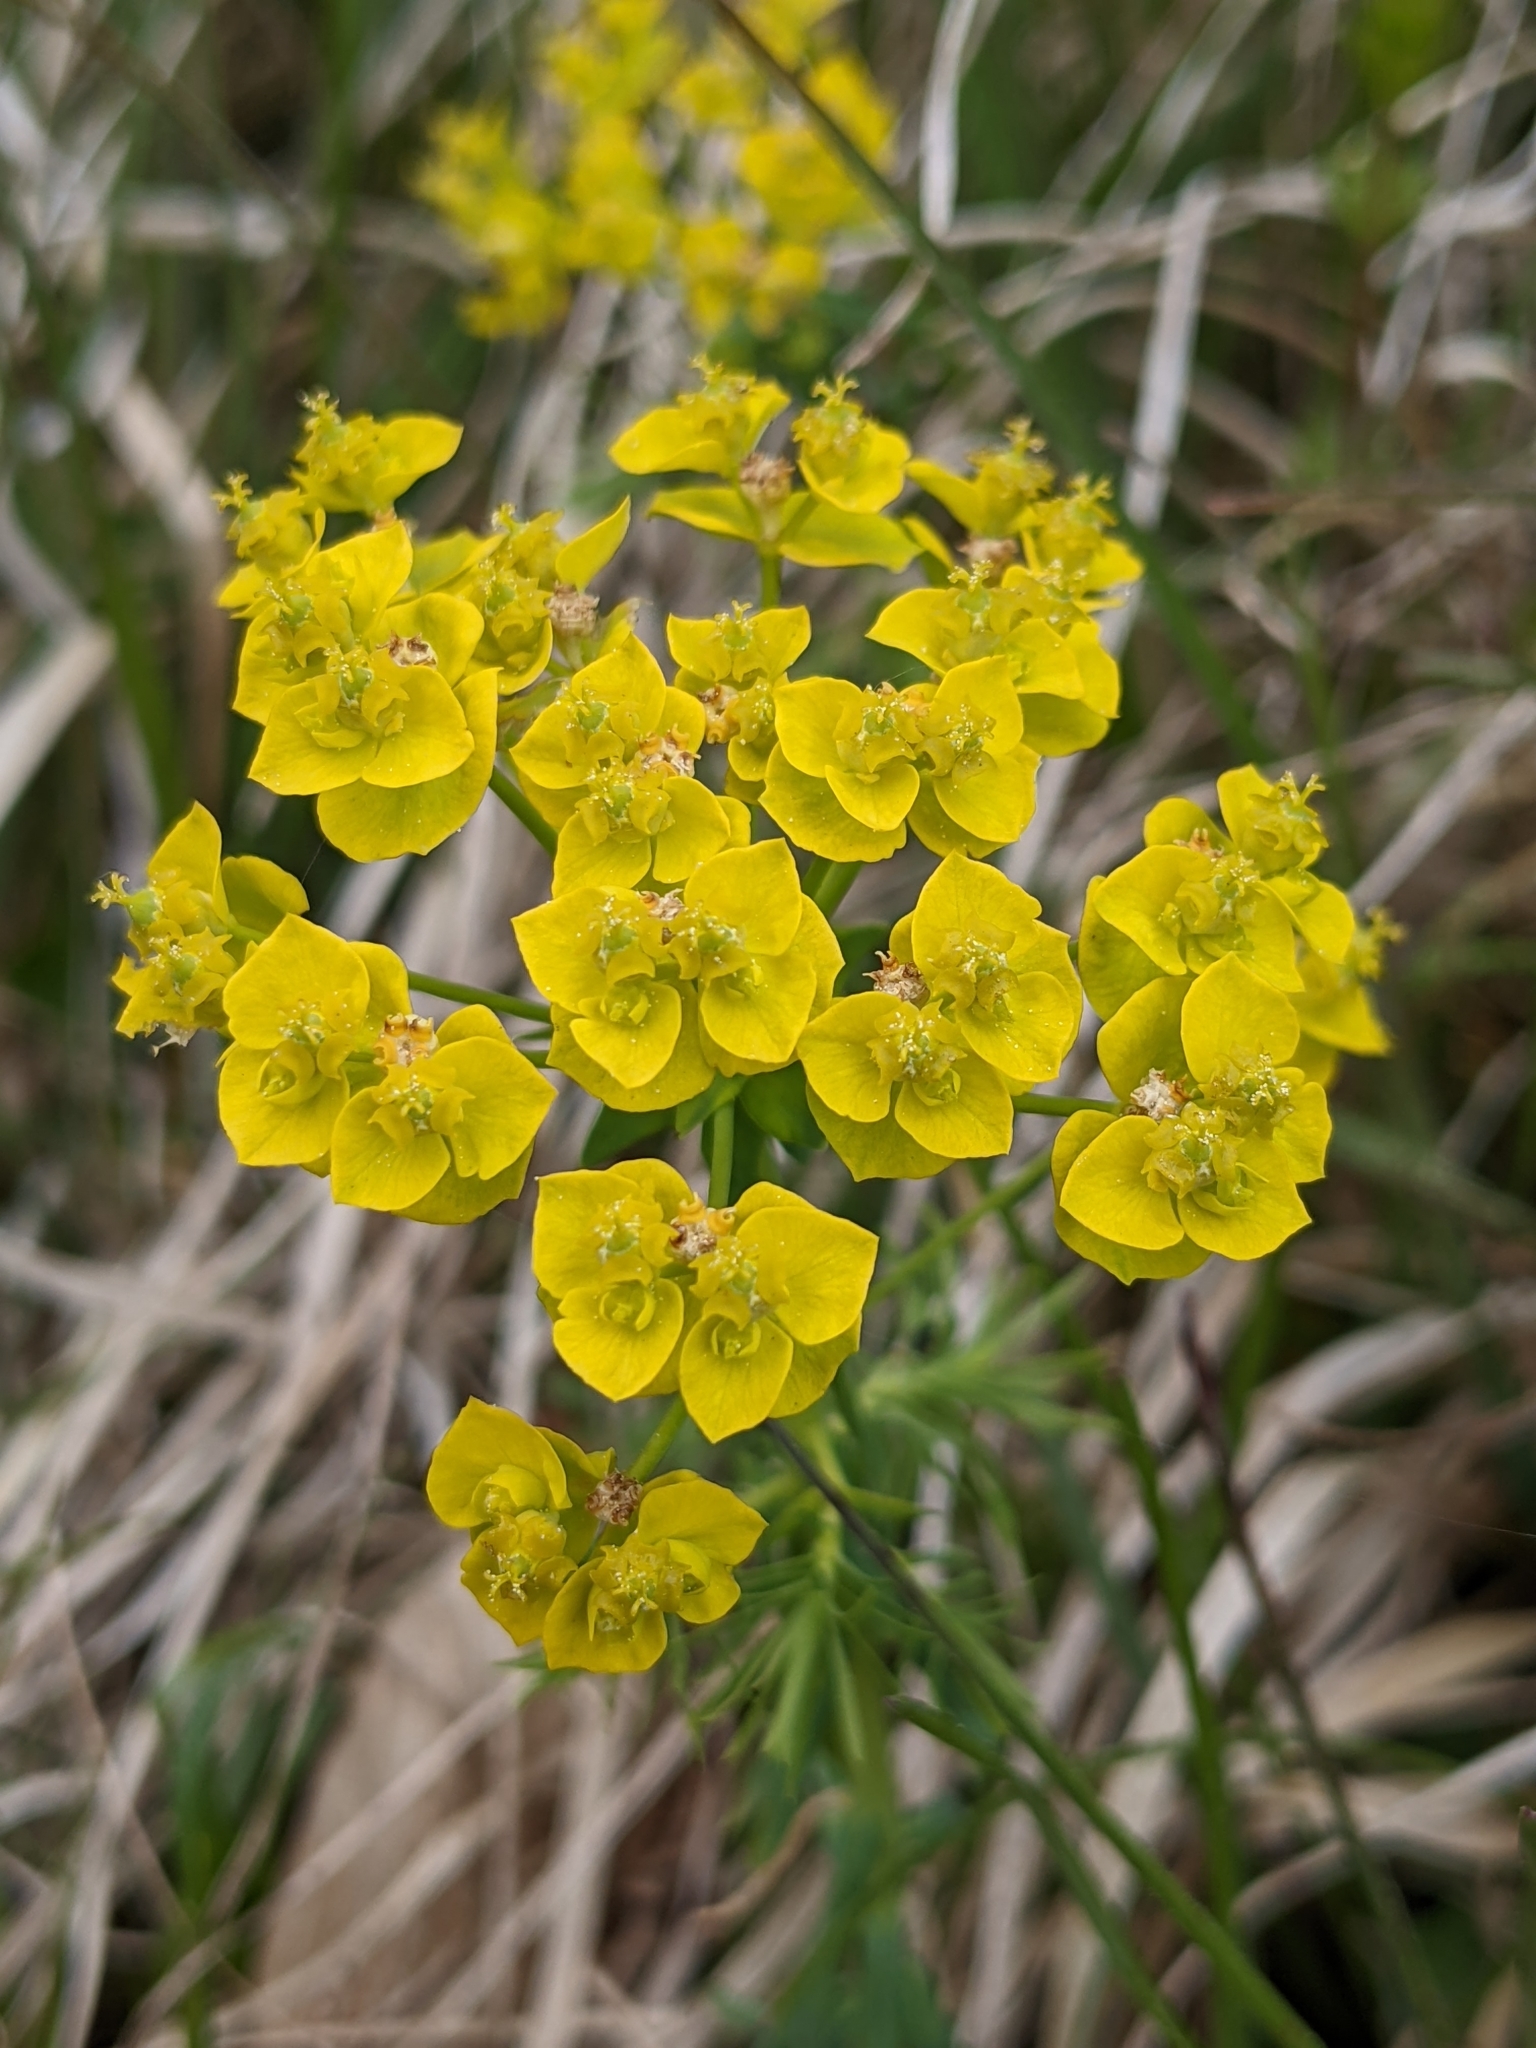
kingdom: Plantae
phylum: Tracheophyta
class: Magnoliopsida
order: Malpighiales
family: Euphorbiaceae
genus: Euphorbia
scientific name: Euphorbia cyparissias
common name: Cypress spurge
